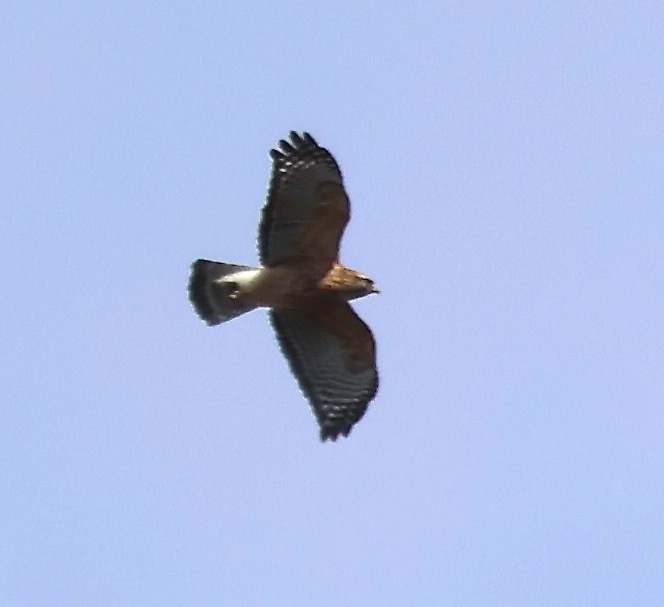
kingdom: Animalia
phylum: Chordata
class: Aves
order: Accipitriformes
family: Accipitridae
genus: Buteo
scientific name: Buteo lineatus
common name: Red-shouldered hawk
